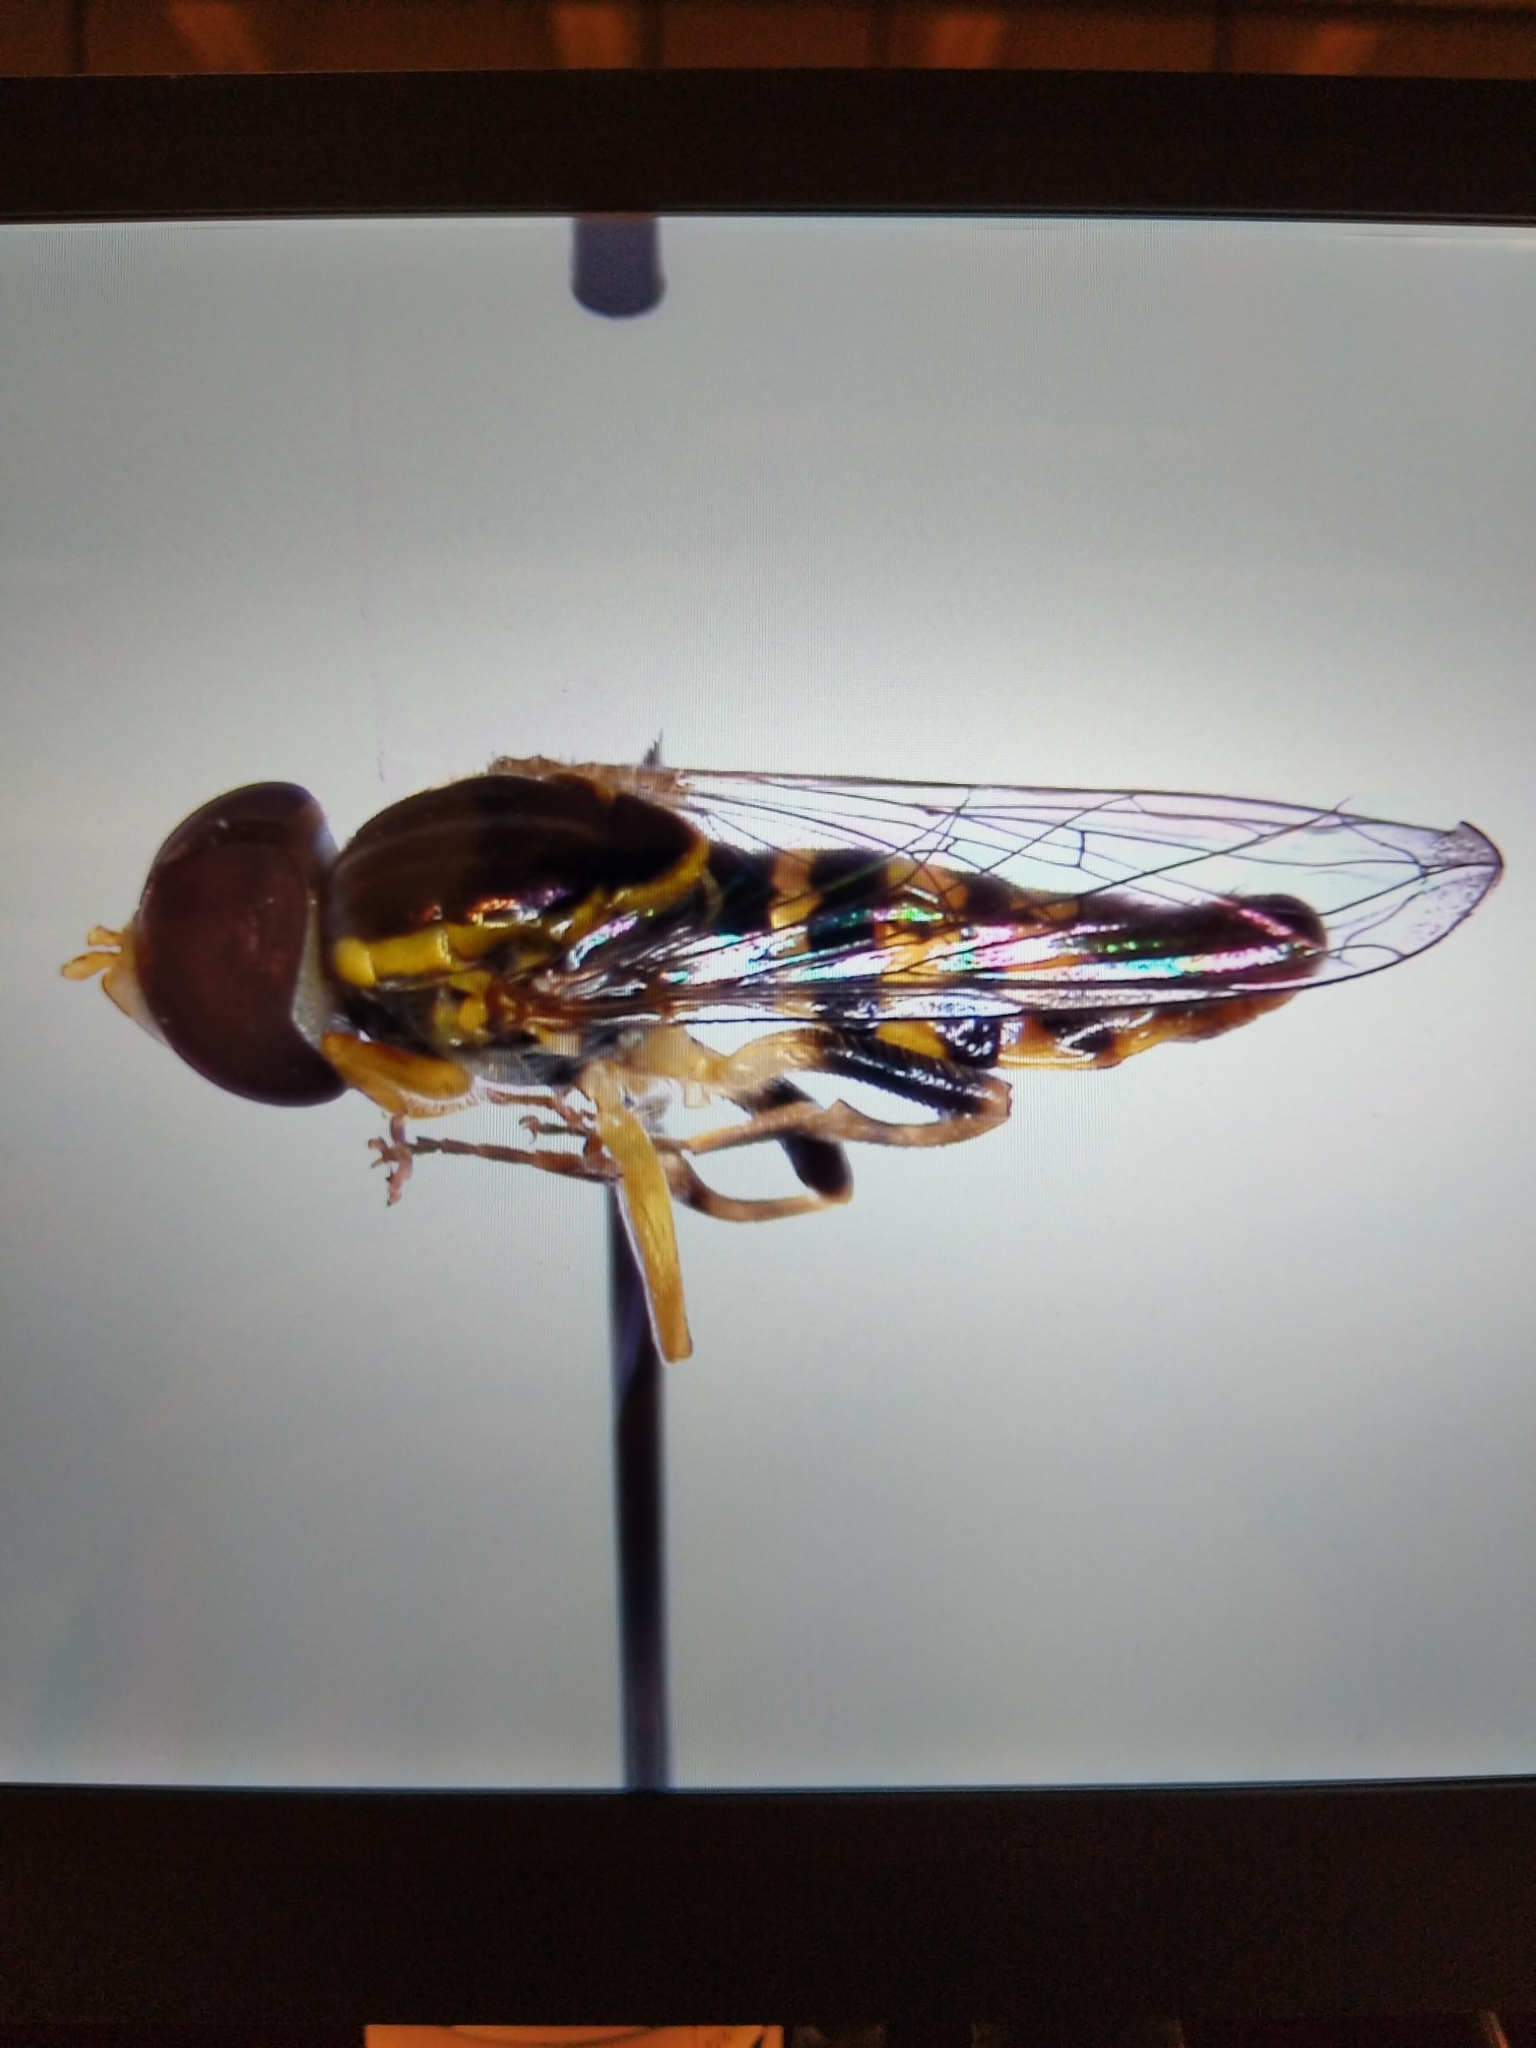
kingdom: Animalia
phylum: Arthropoda
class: Insecta
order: Diptera
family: Syrphidae
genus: Toxomerus
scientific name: Toxomerus geminatus
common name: Eastern calligrapher
